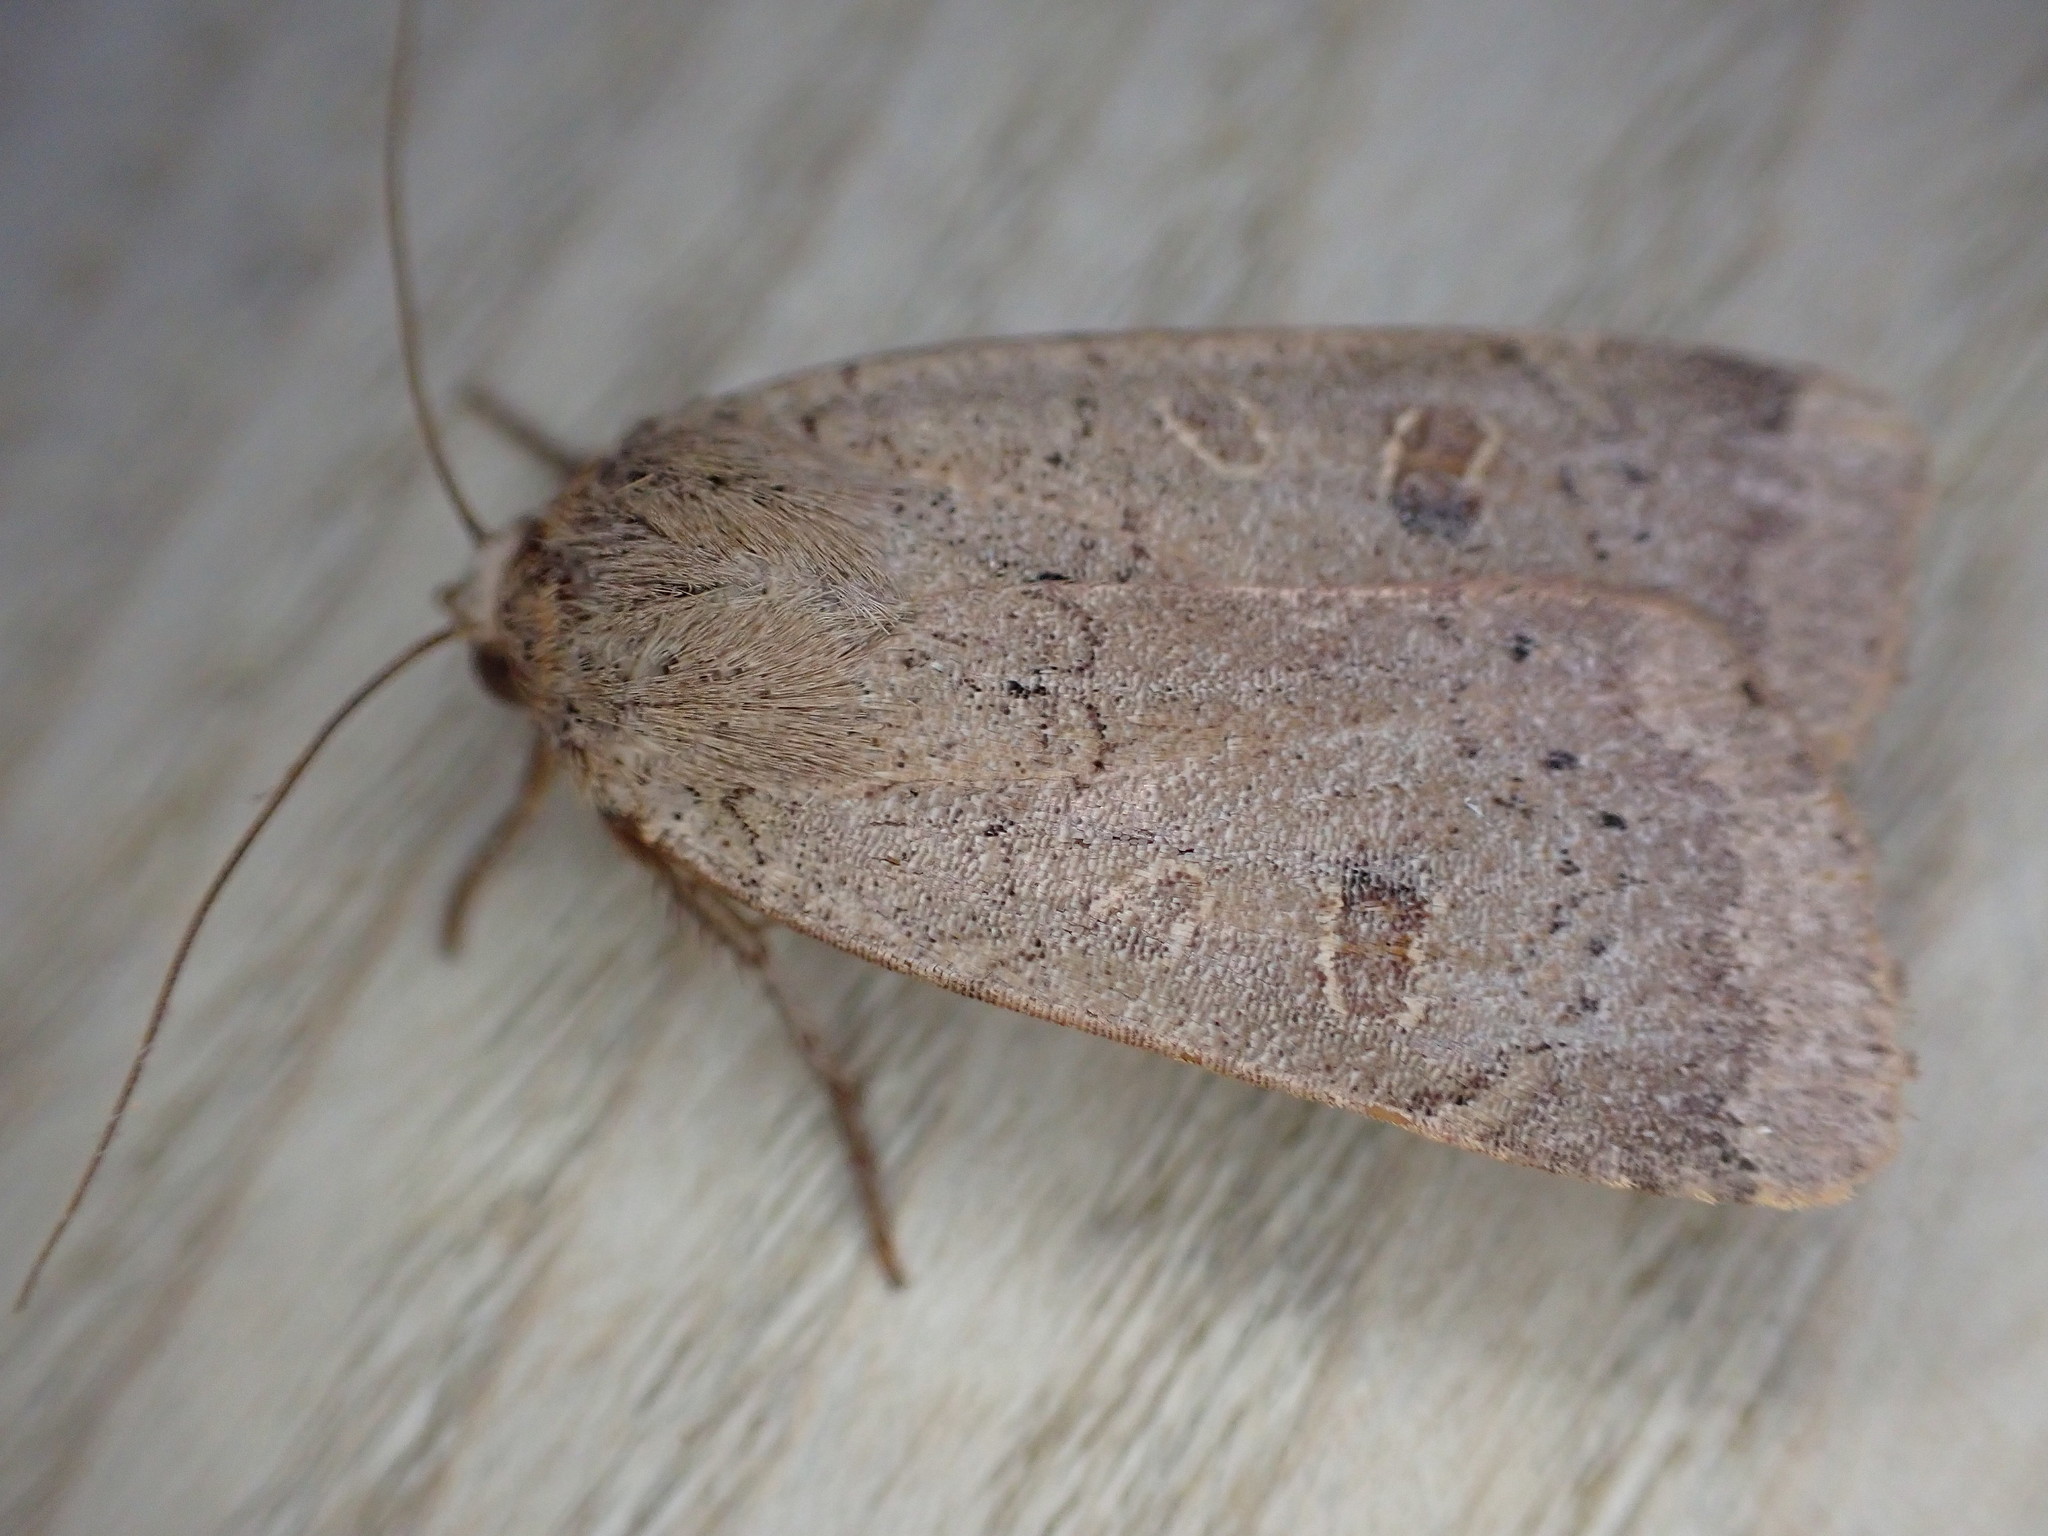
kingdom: Animalia
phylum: Arthropoda
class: Insecta
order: Lepidoptera
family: Noctuidae
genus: Noctua
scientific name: Noctua comes
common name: Lesser yellow underwing
